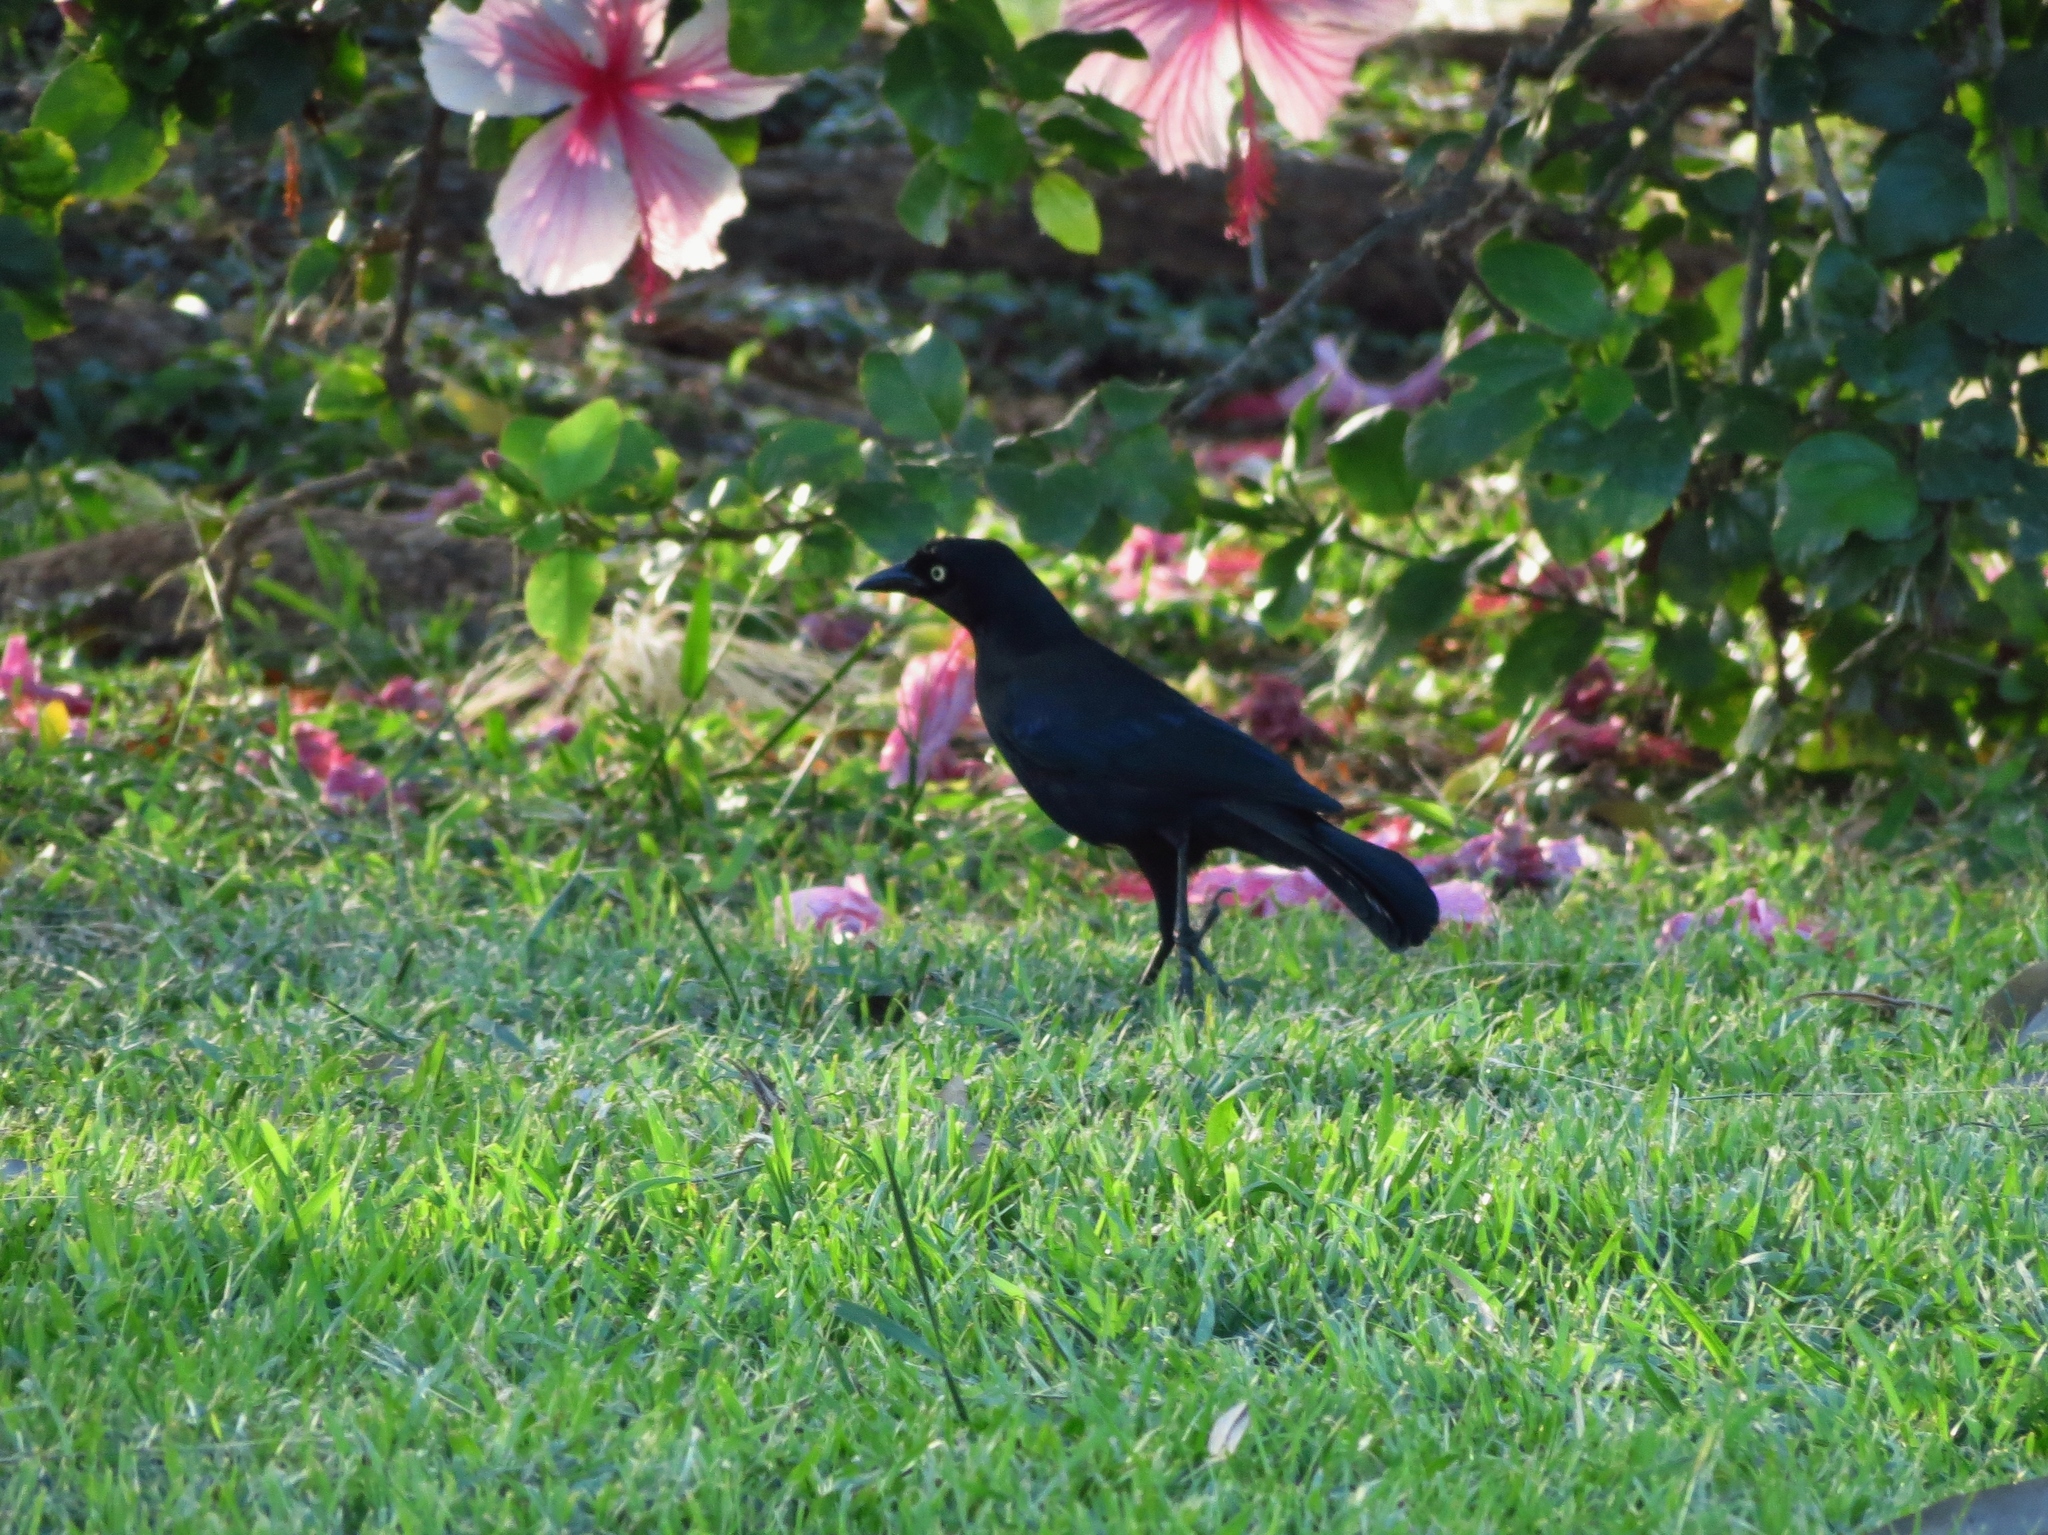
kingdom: Animalia
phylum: Chordata
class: Aves
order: Passeriformes
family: Icteridae
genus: Quiscalus
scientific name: Quiscalus lugubris
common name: Carib grackle
